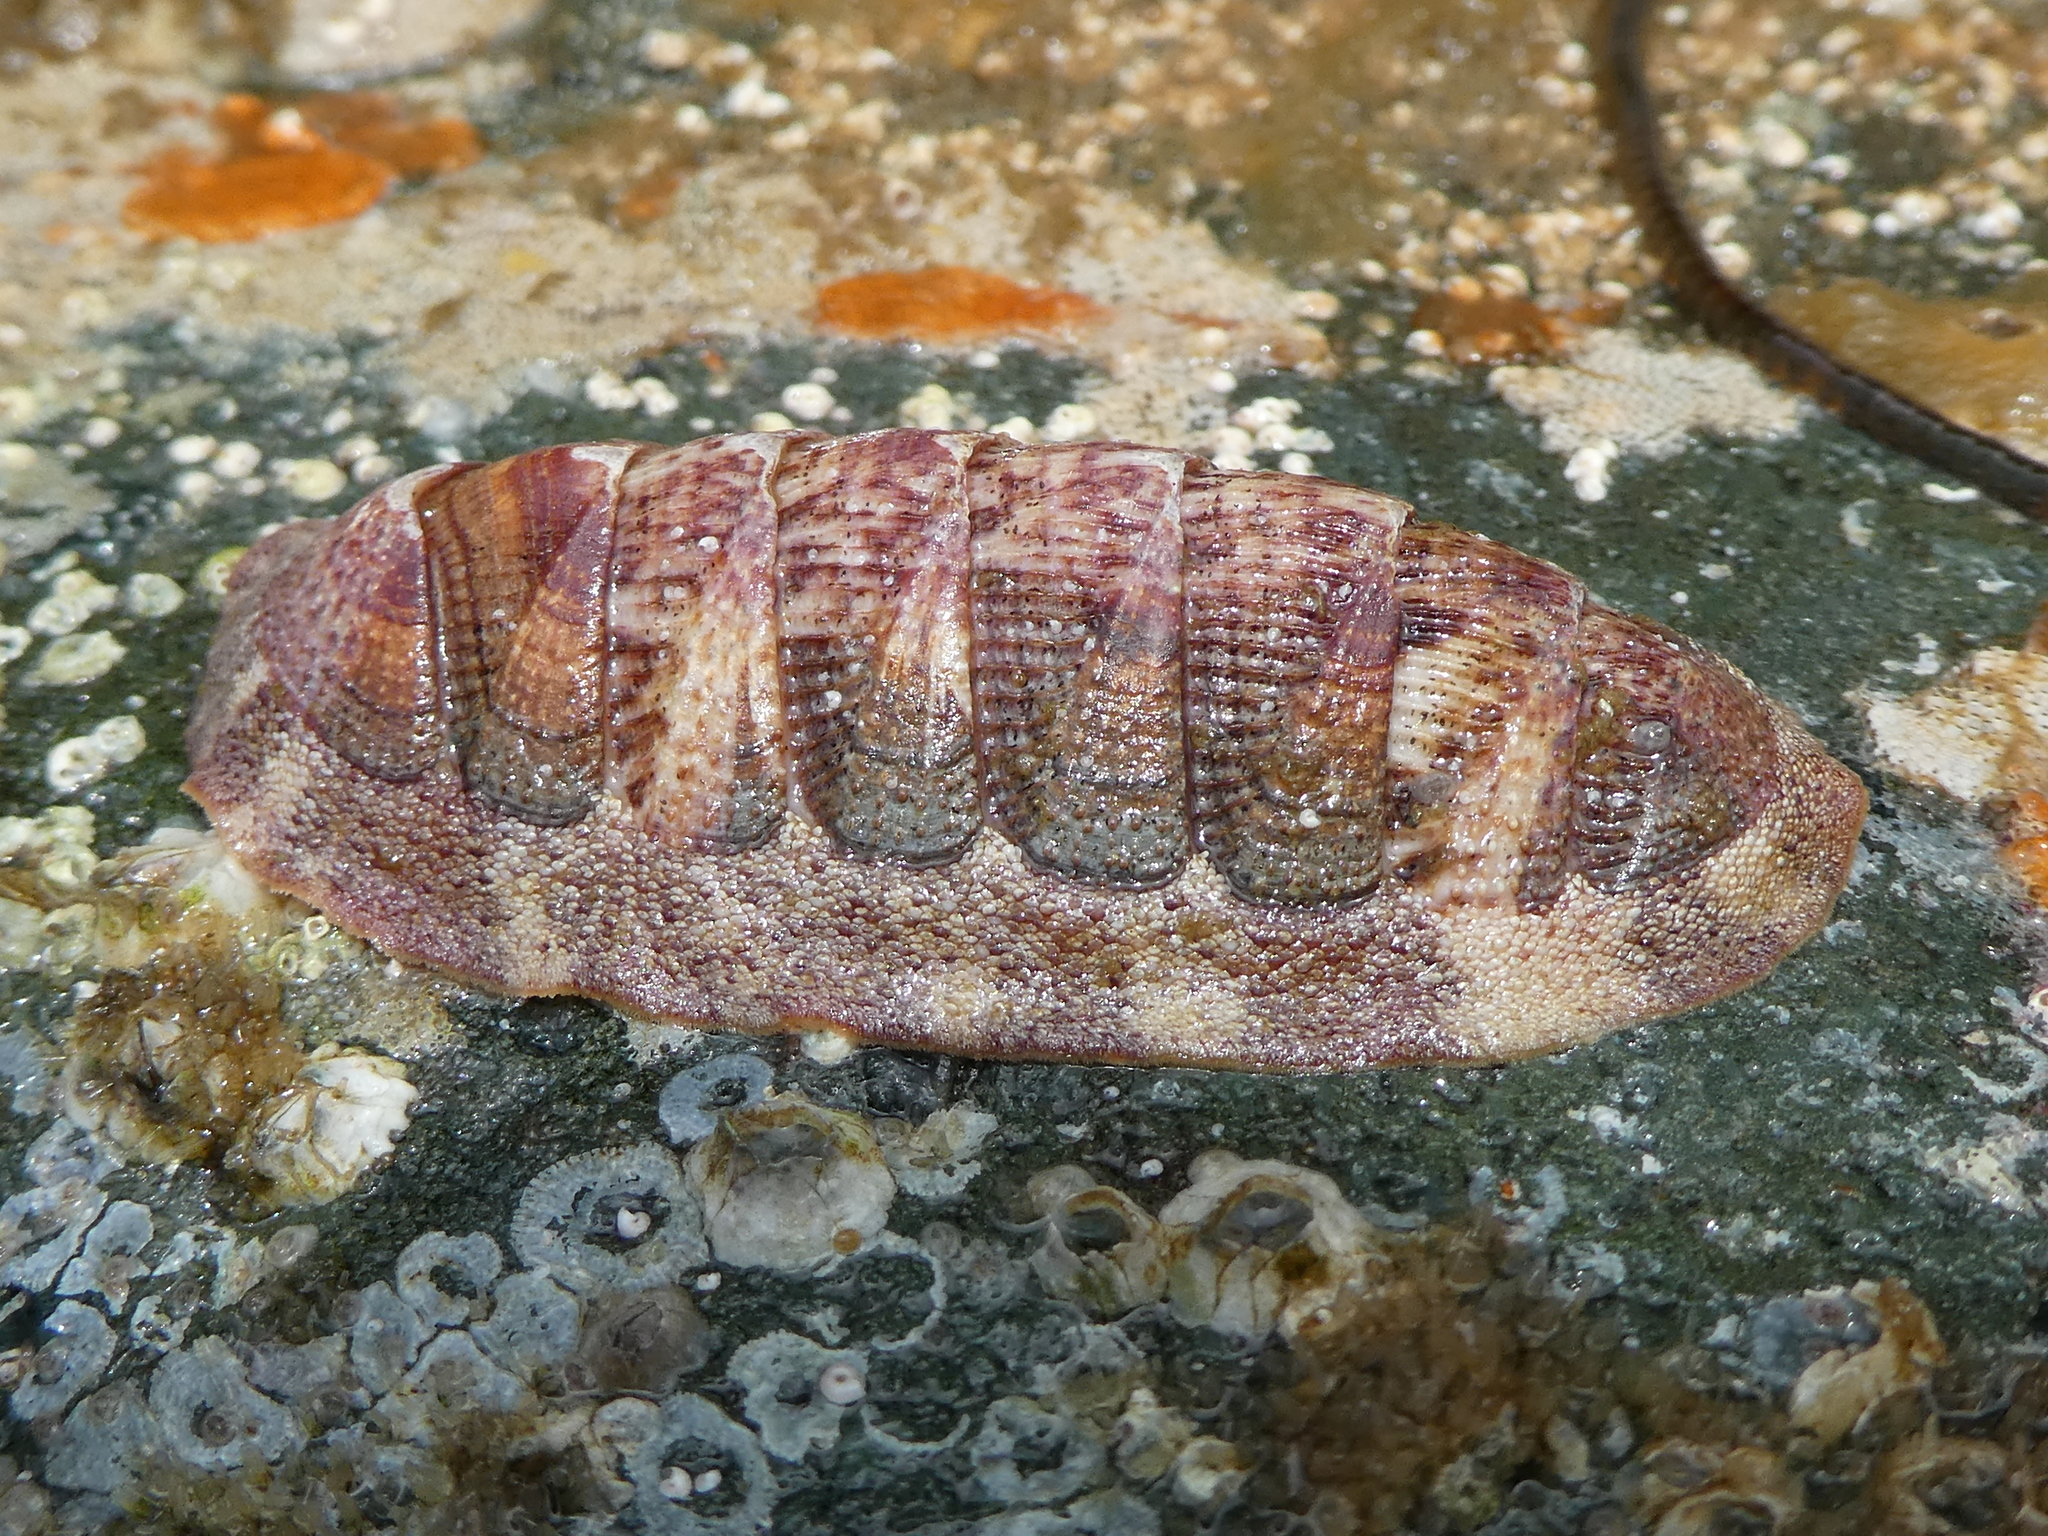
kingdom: Animalia
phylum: Mollusca
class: Polyplacophora
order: Chitonida
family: Ischnochitonidae
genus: Lepidozona
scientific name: Lepidozona mertensii
